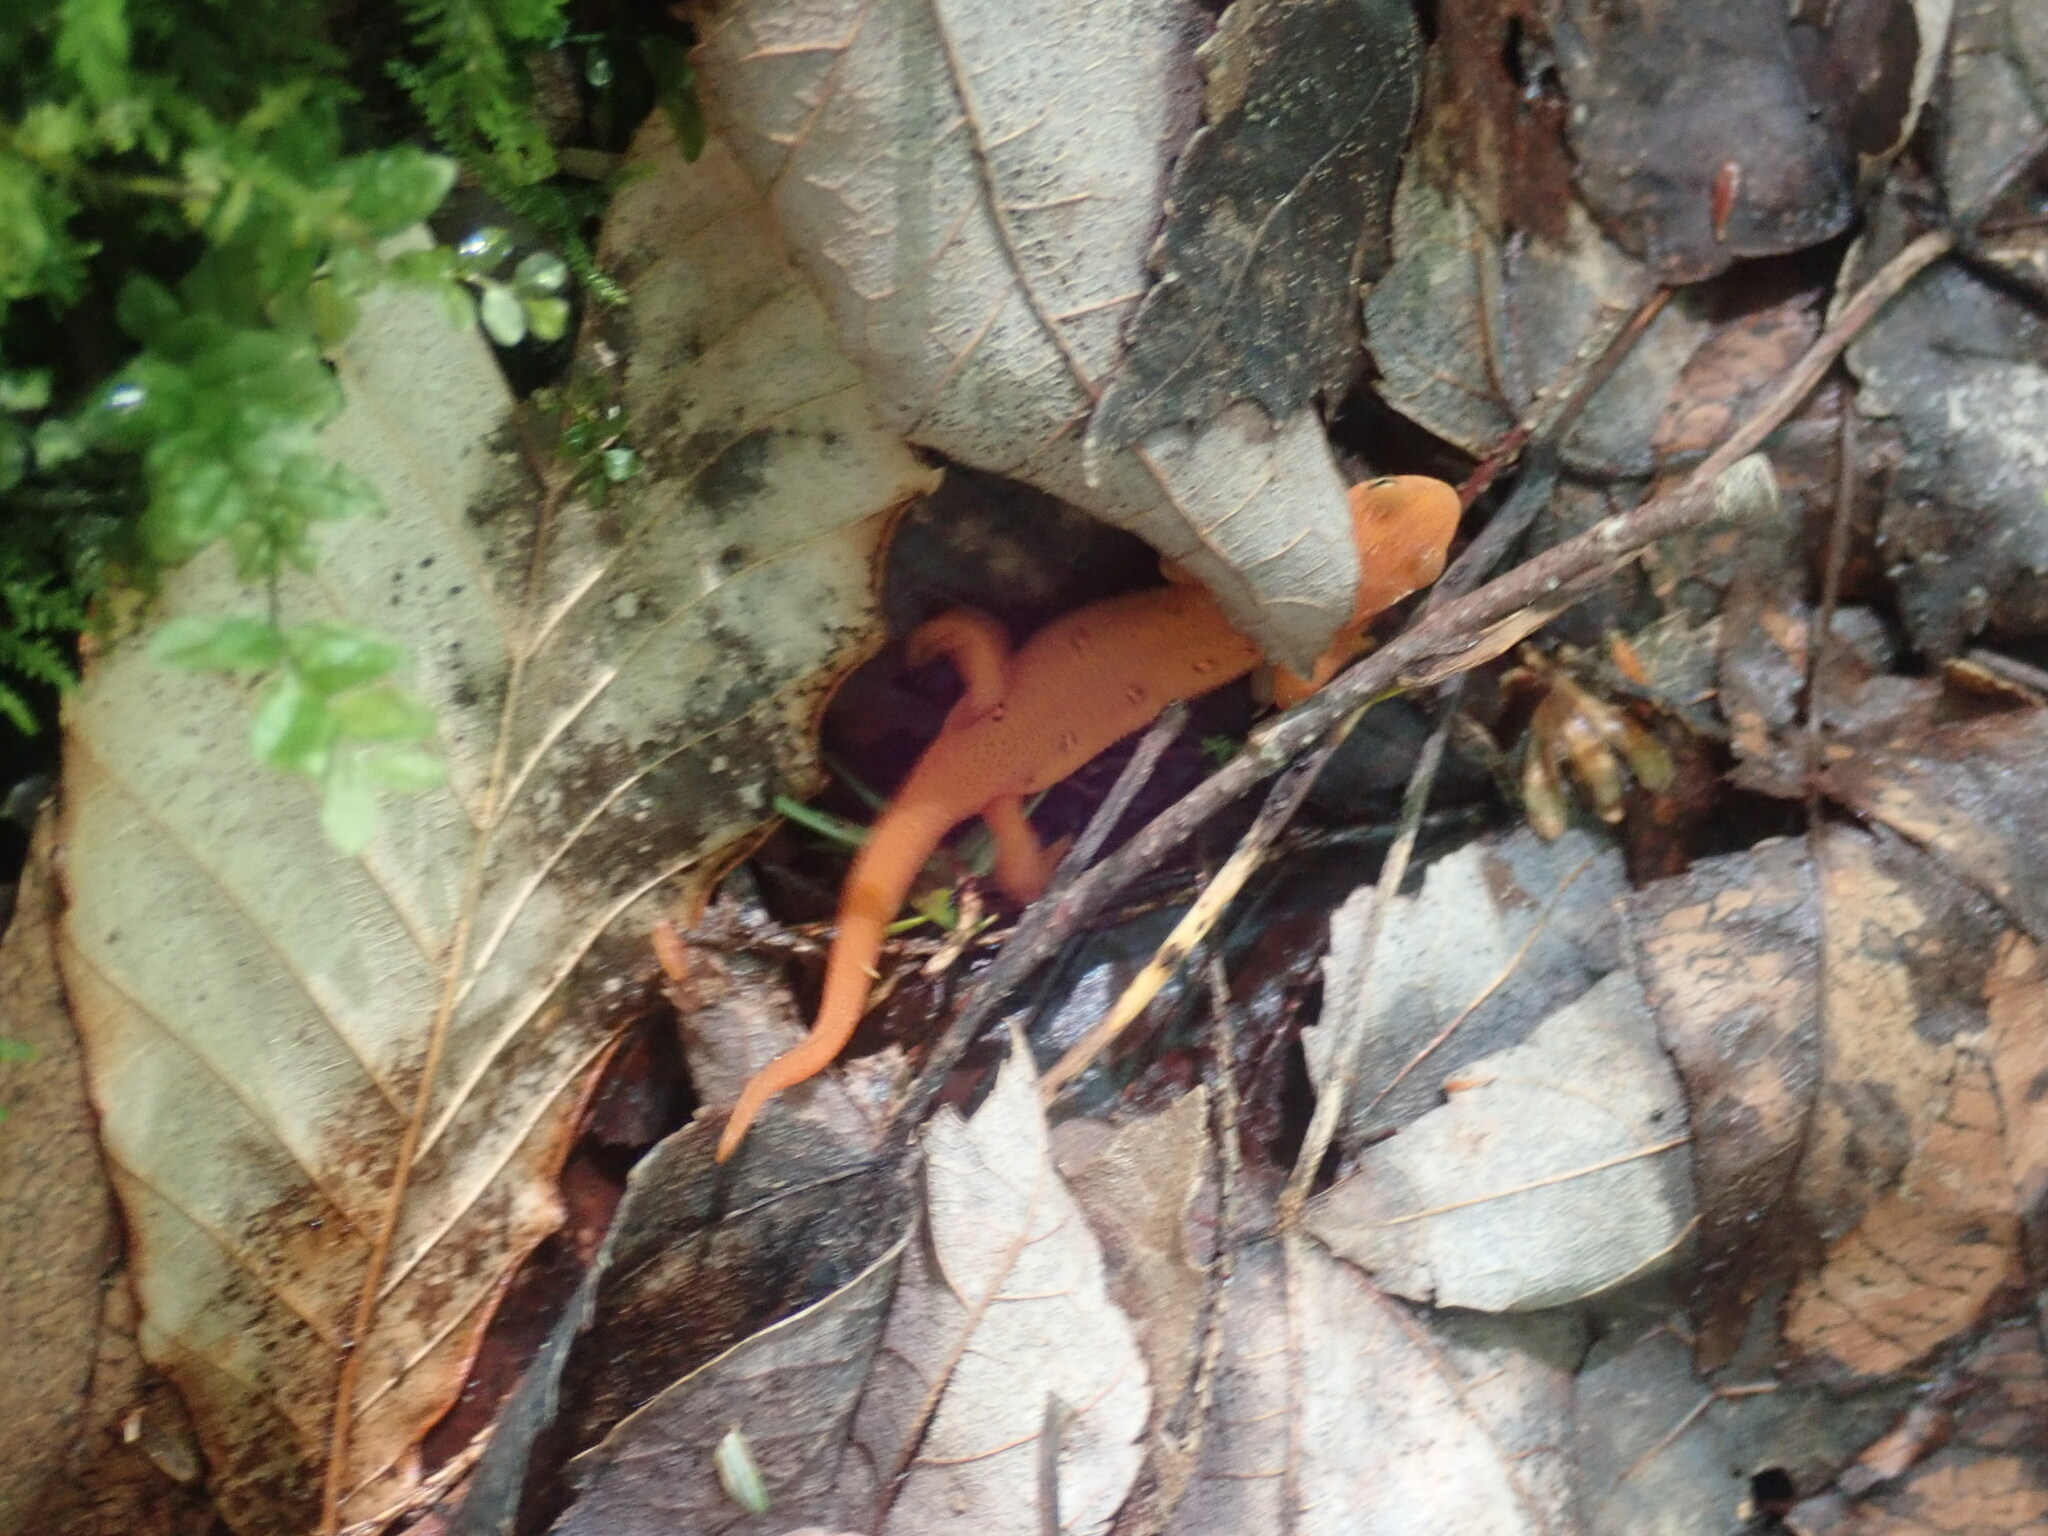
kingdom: Animalia
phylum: Chordata
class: Amphibia
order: Caudata
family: Salamandridae
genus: Notophthalmus
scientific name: Notophthalmus viridescens
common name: Eastern newt
